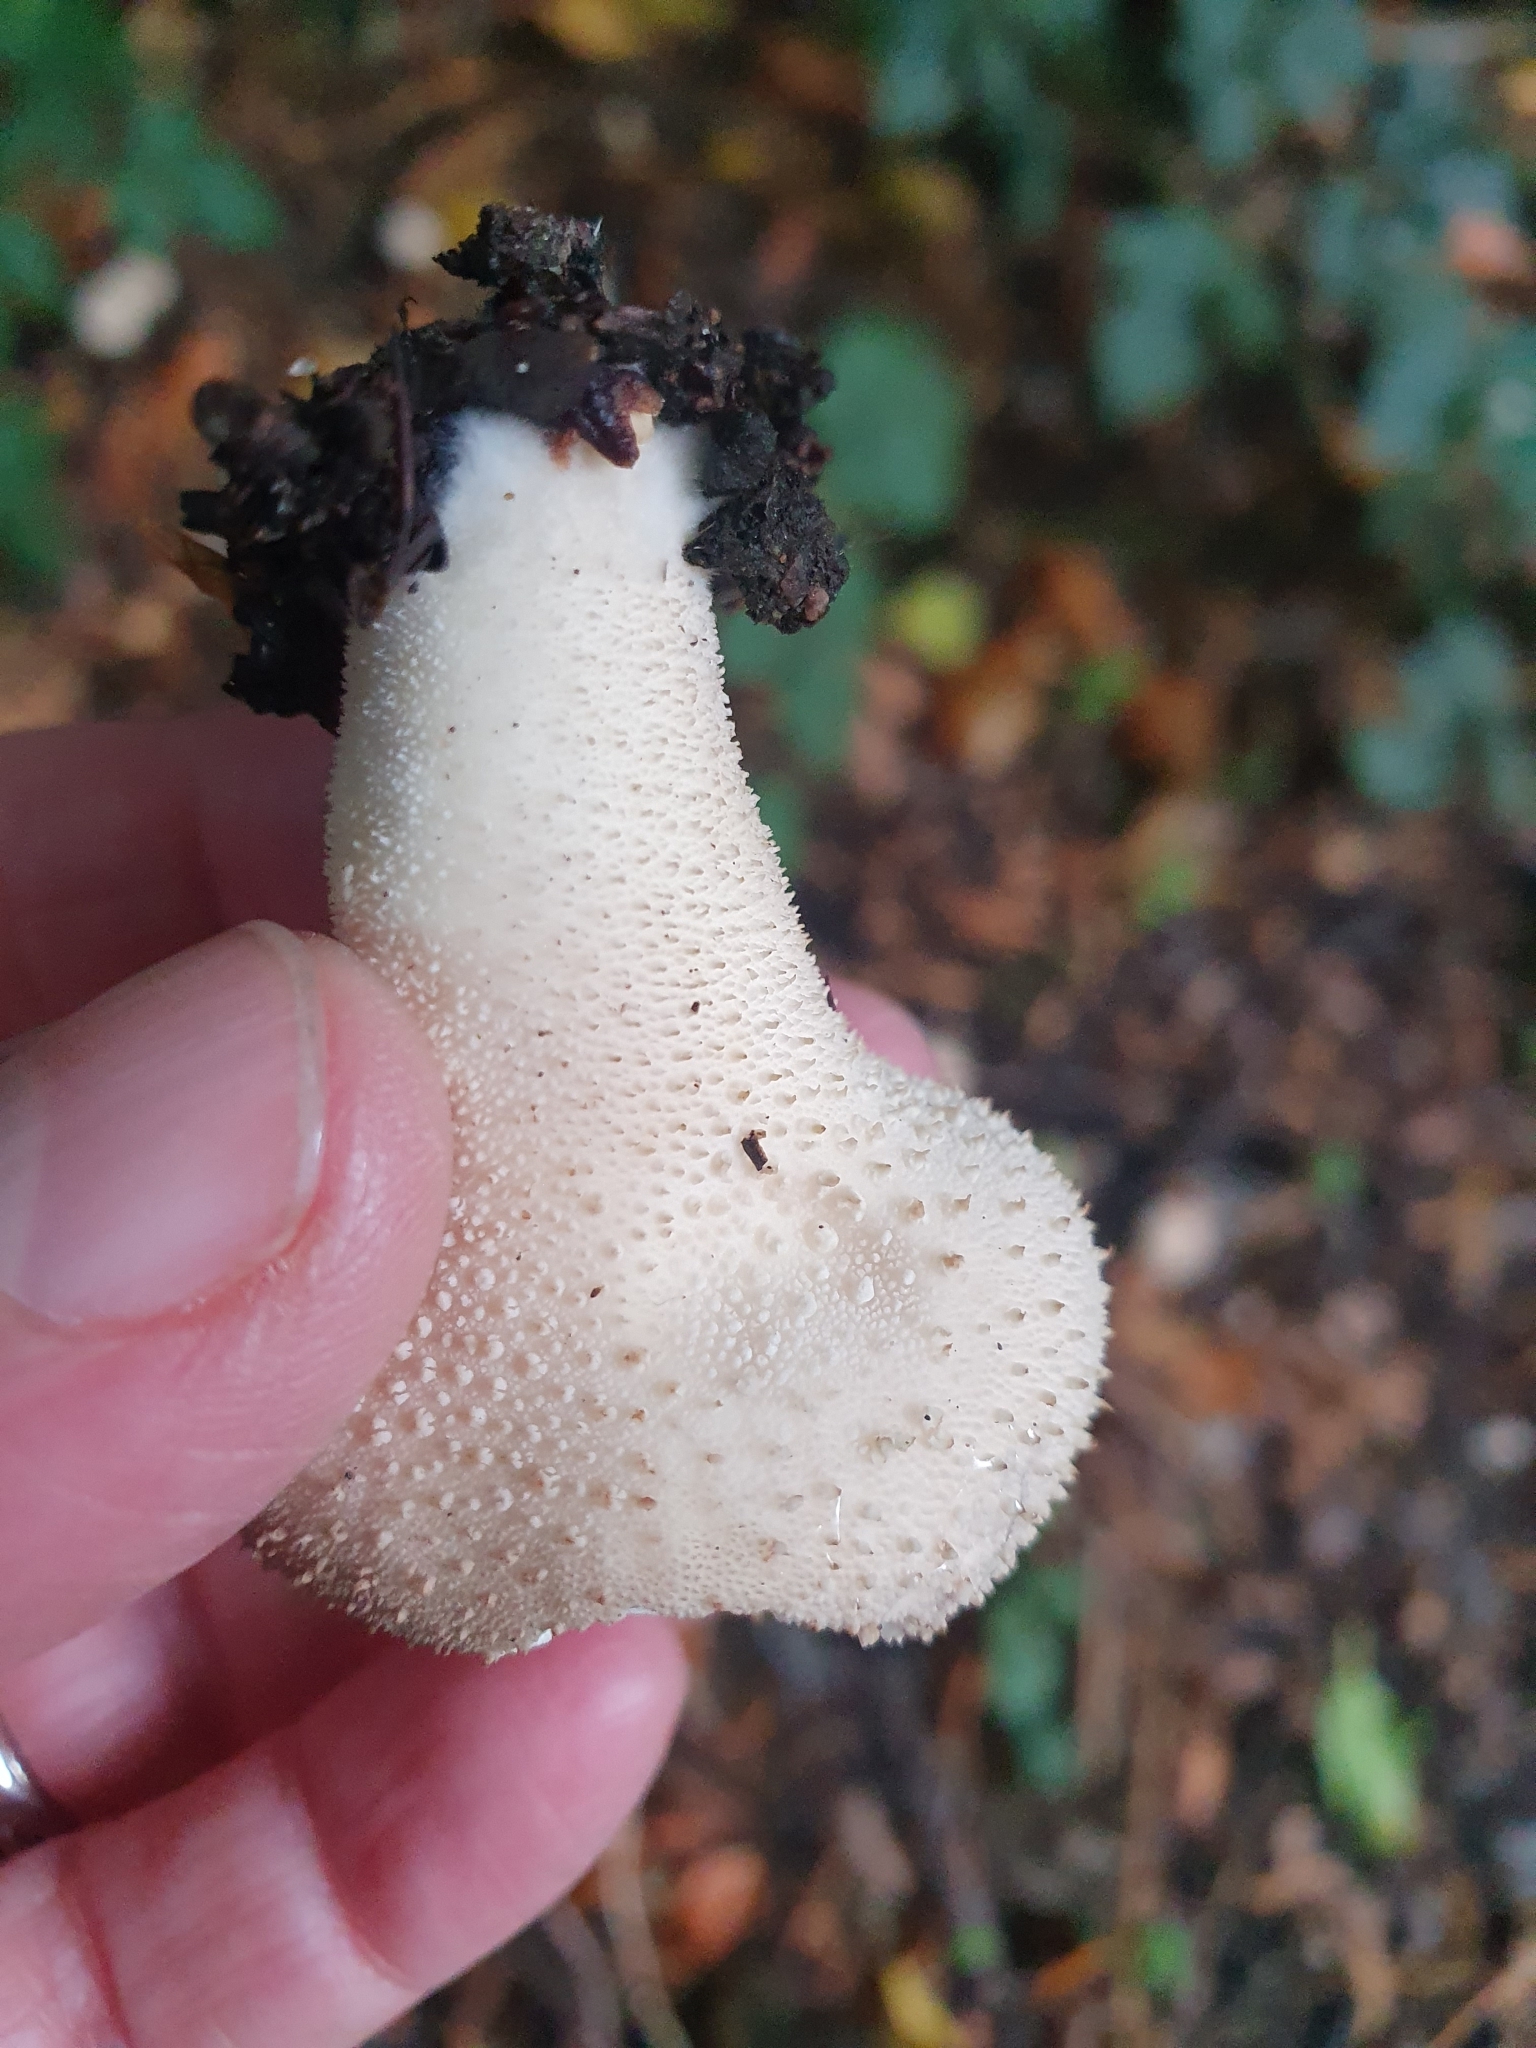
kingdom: Fungi
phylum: Basidiomycota
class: Agaricomycetes
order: Agaricales
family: Lycoperdaceae
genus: Lycoperdon
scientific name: Lycoperdon perlatum
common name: Common puffball
